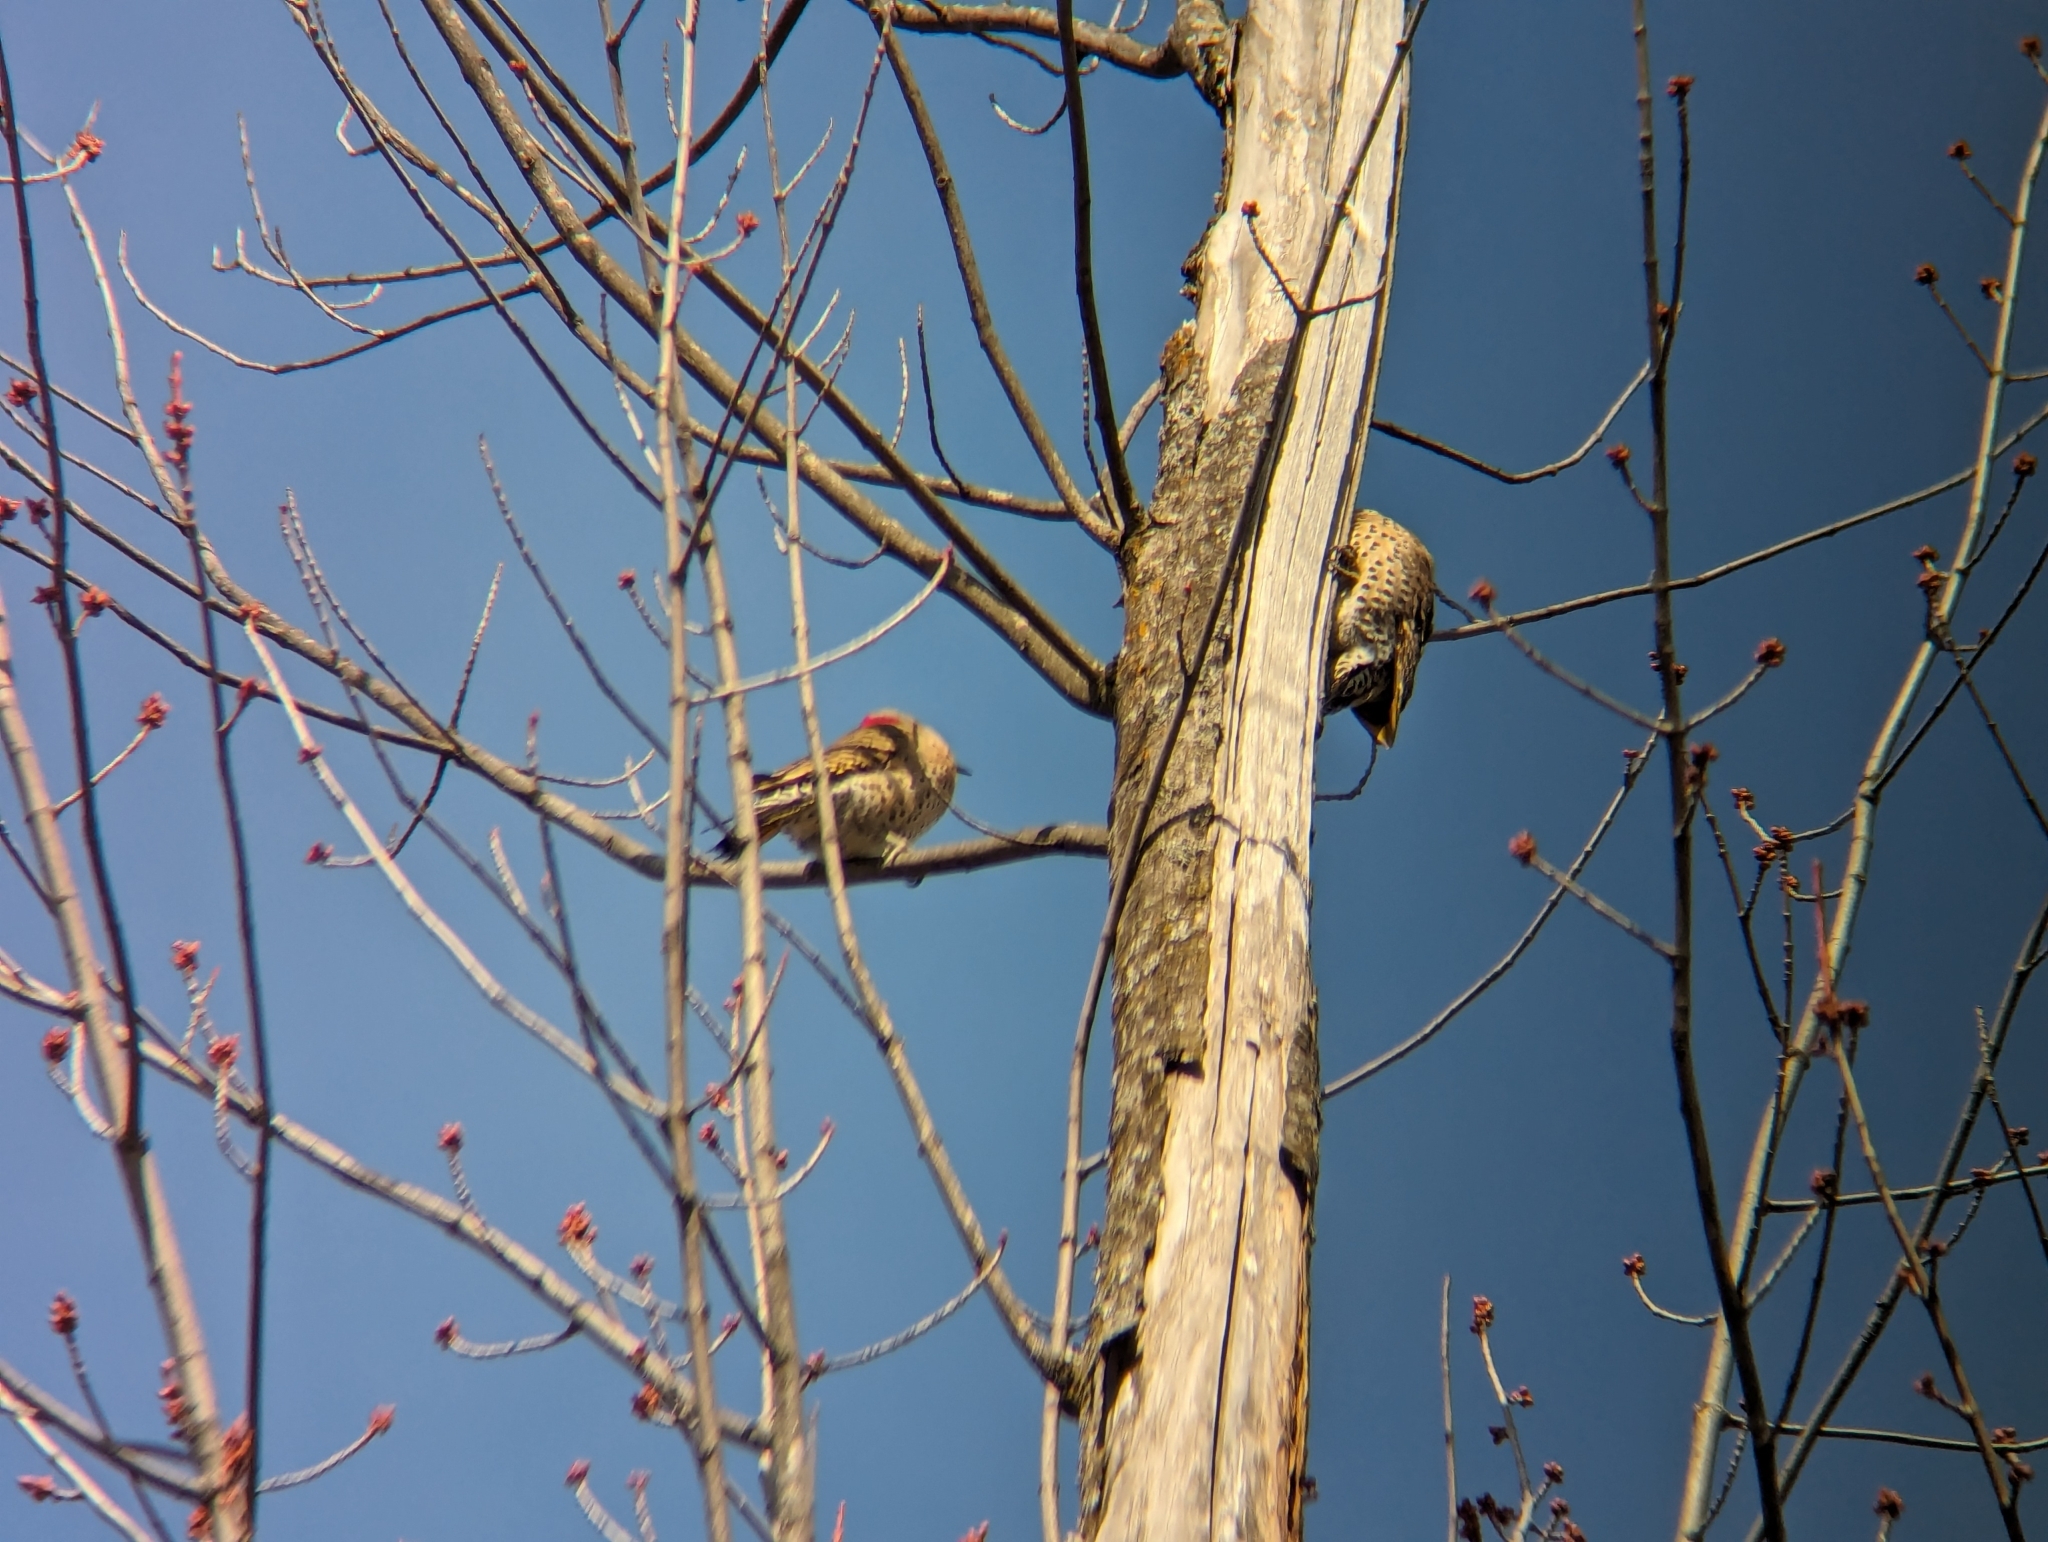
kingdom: Animalia
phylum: Chordata
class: Aves
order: Piciformes
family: Picidae
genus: Colaptes
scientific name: Colaptes auratus
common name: Northern flicker
